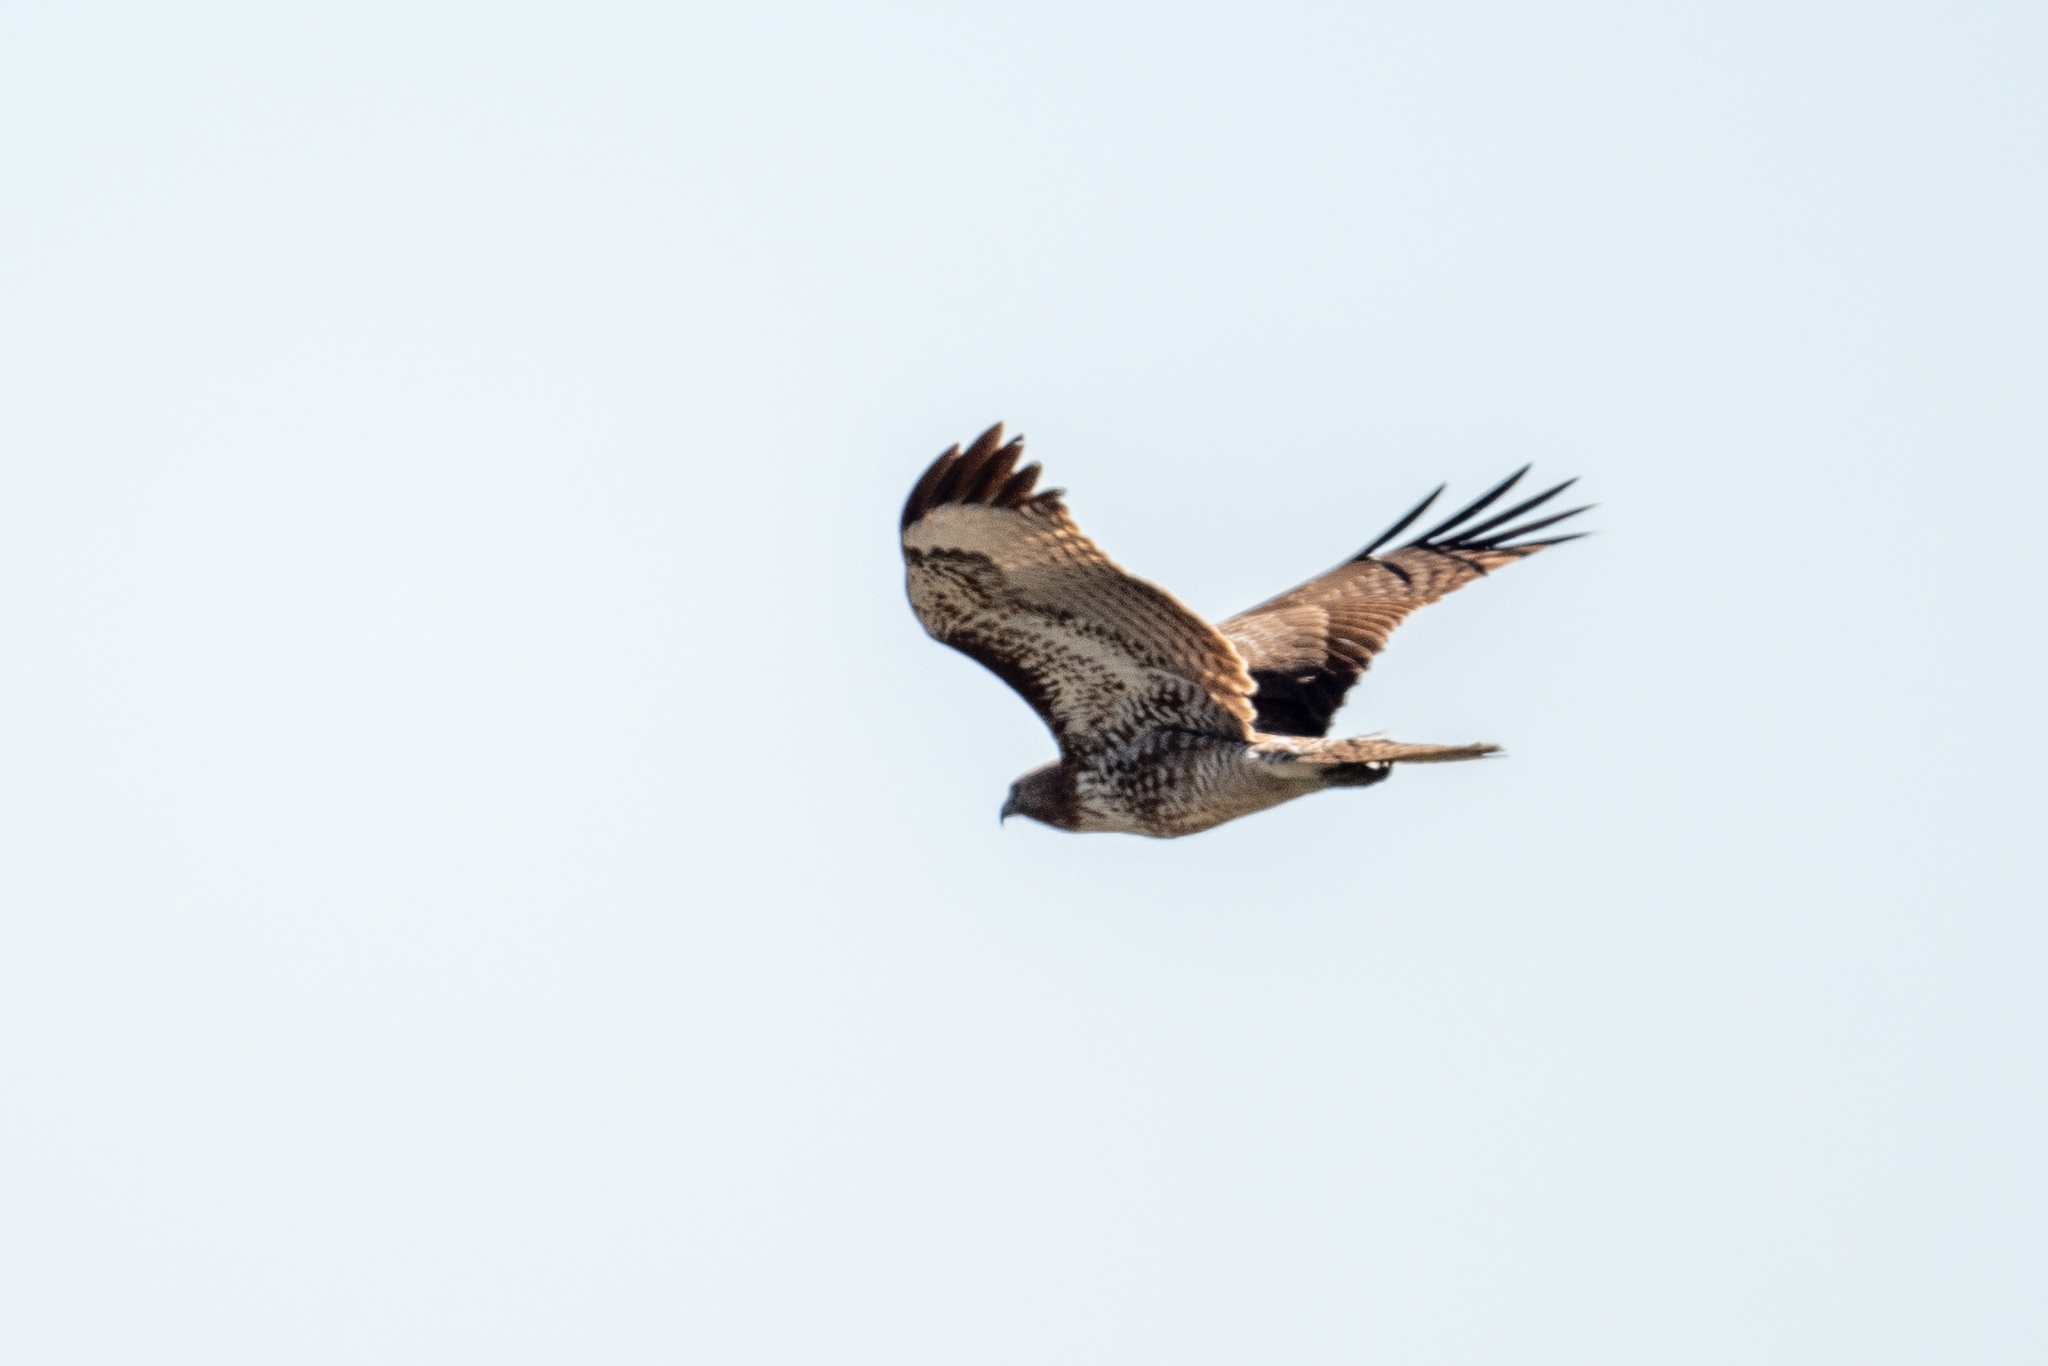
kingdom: Animalia
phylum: Chordata
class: Aves
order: Accipitriformes
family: Accipitridae
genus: Buteo
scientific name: Buteo jamaicensis
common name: Red-tailed hawk
